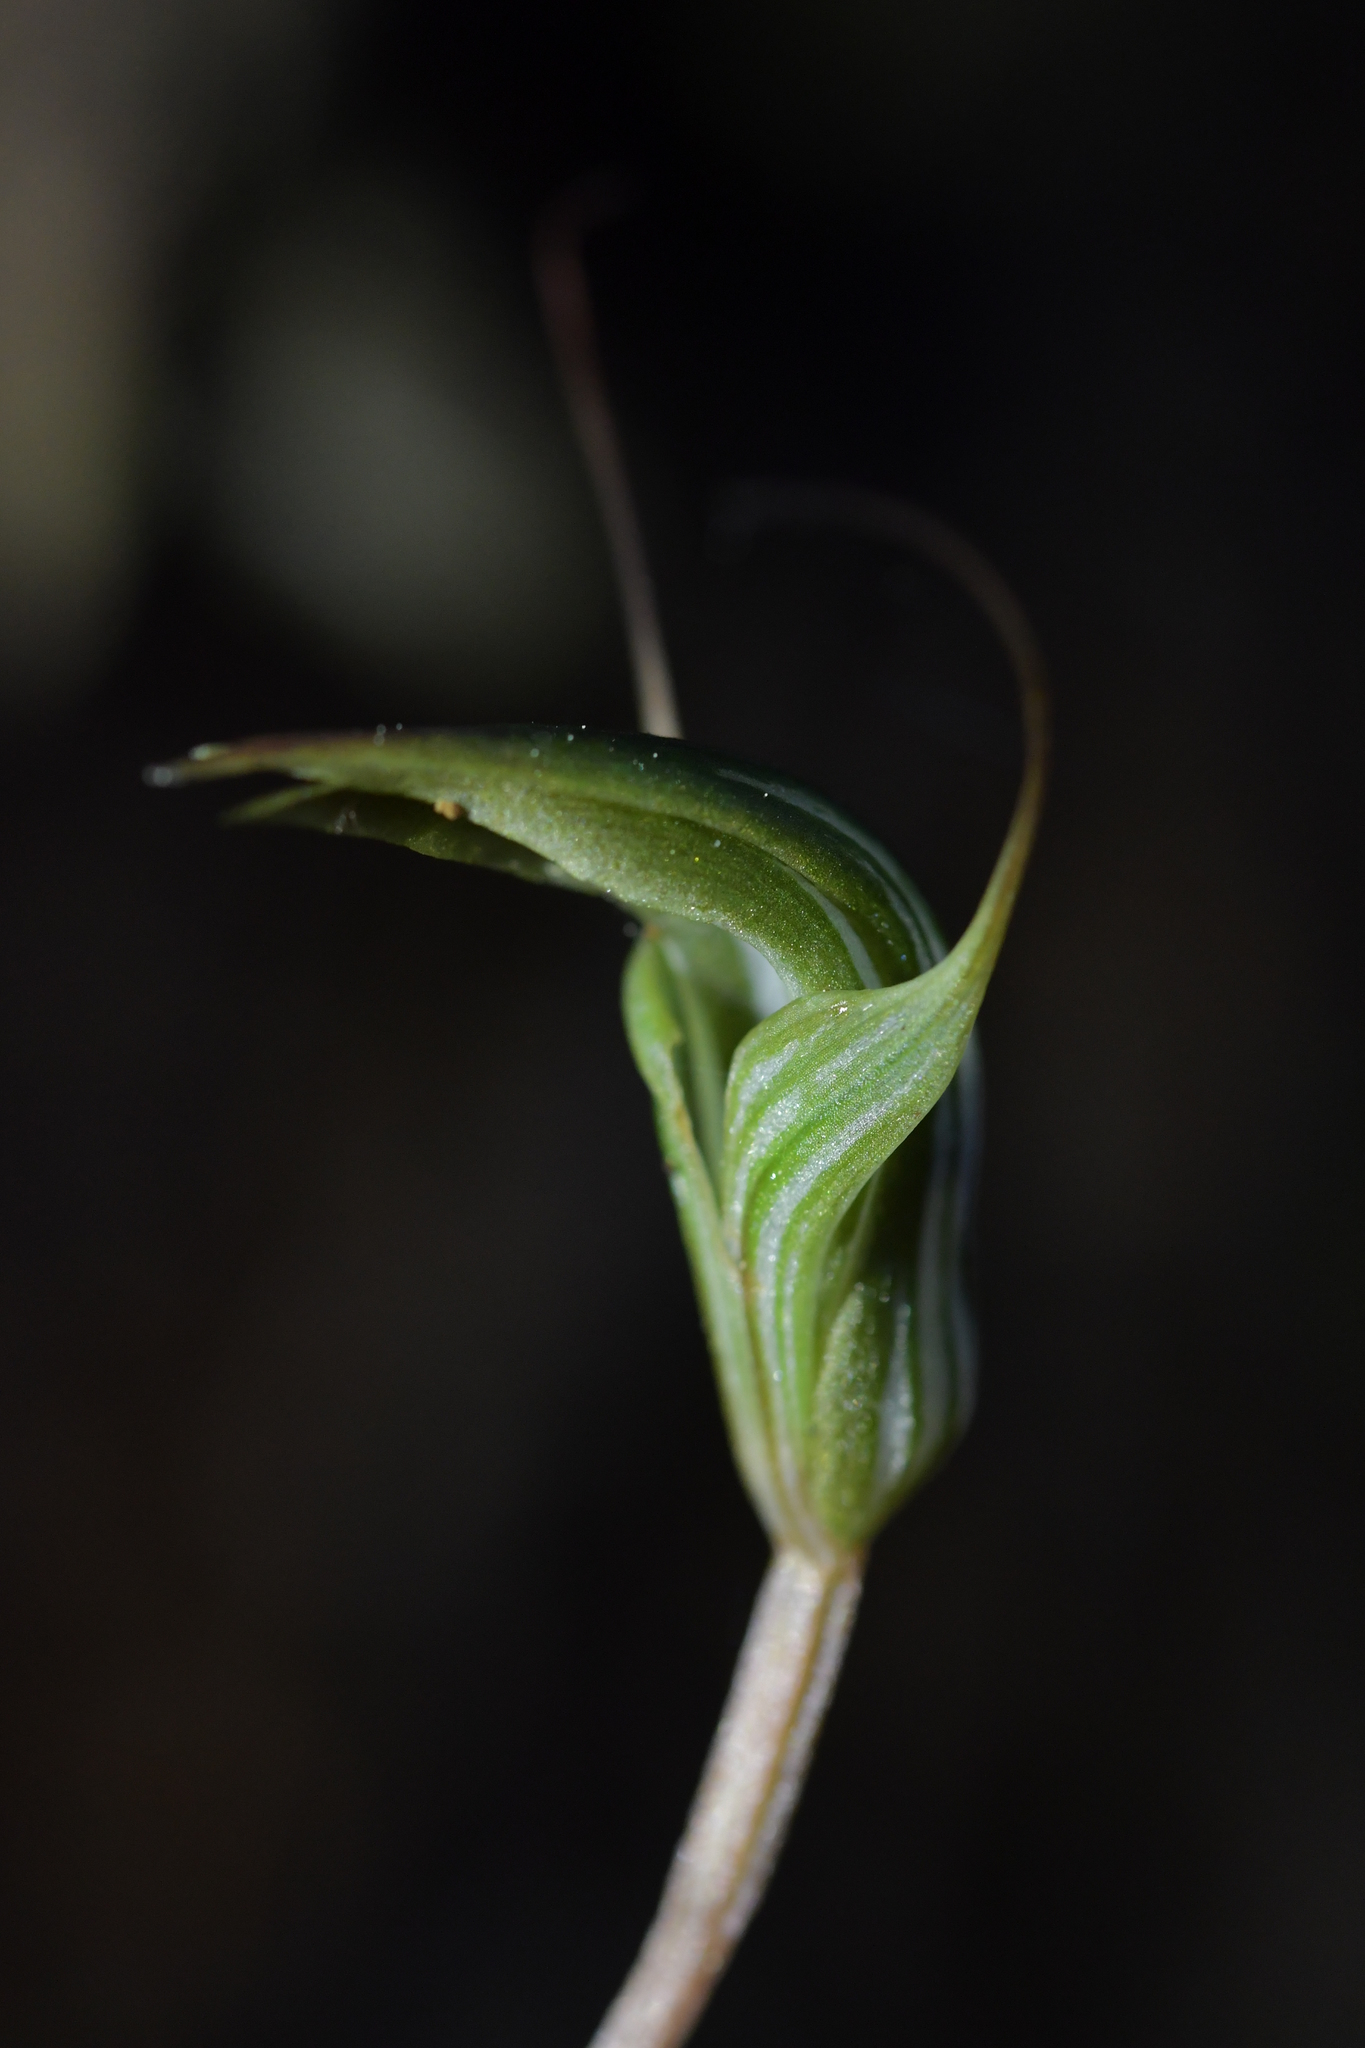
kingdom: Plantae
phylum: Tracheophyta
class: Liliopsida
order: Asparagales
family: Orchidaceae
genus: Pterostylis
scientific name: Pterostylis alobula
